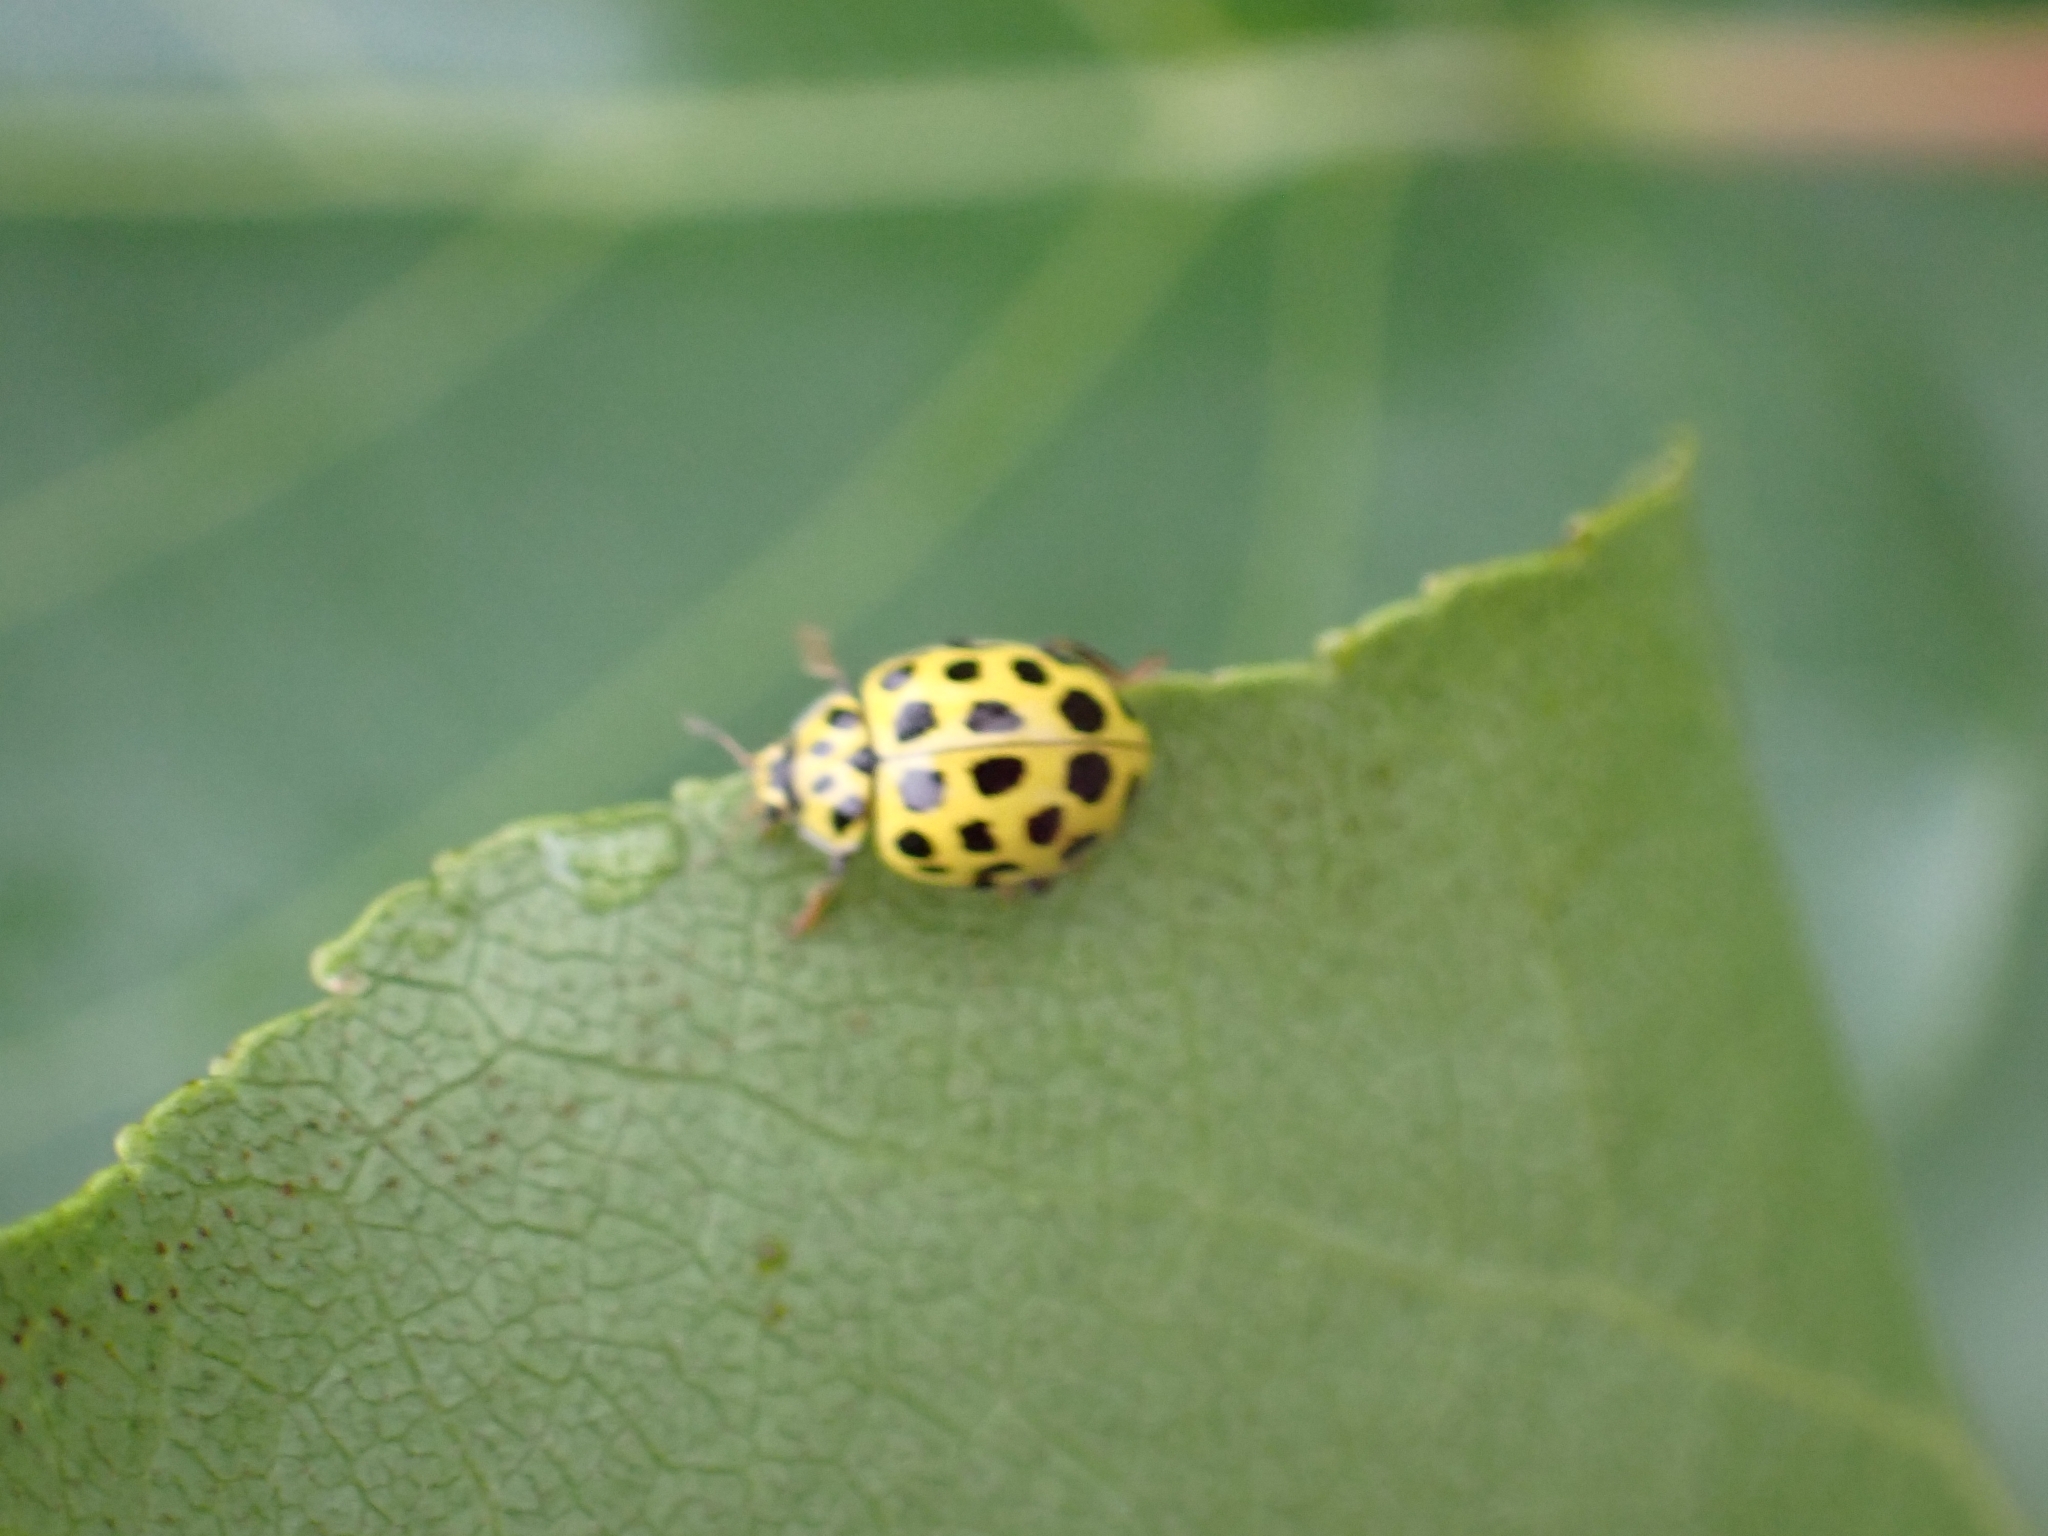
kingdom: Animalia
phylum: Arthropoda
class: Insecta
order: Coleoptera
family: Coccinellidae
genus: Psyllobora
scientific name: Psyllobora vigintiduopunctata
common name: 22-spot ladybird
